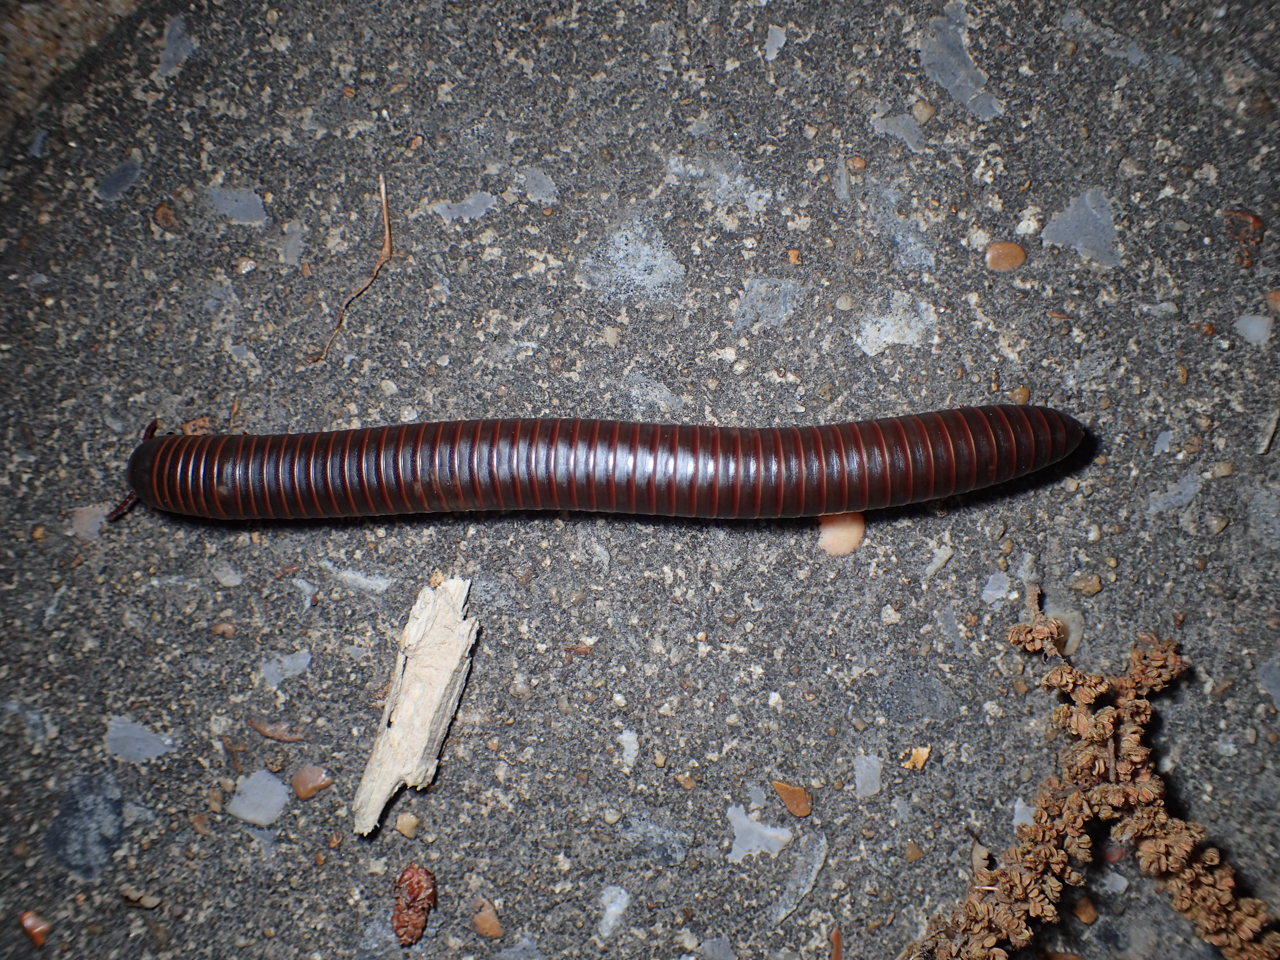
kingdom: Animalia
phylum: Arthropoda
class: Diplopoda
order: Spirobolida
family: Spirobolidae
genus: Narceus
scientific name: Narceus
